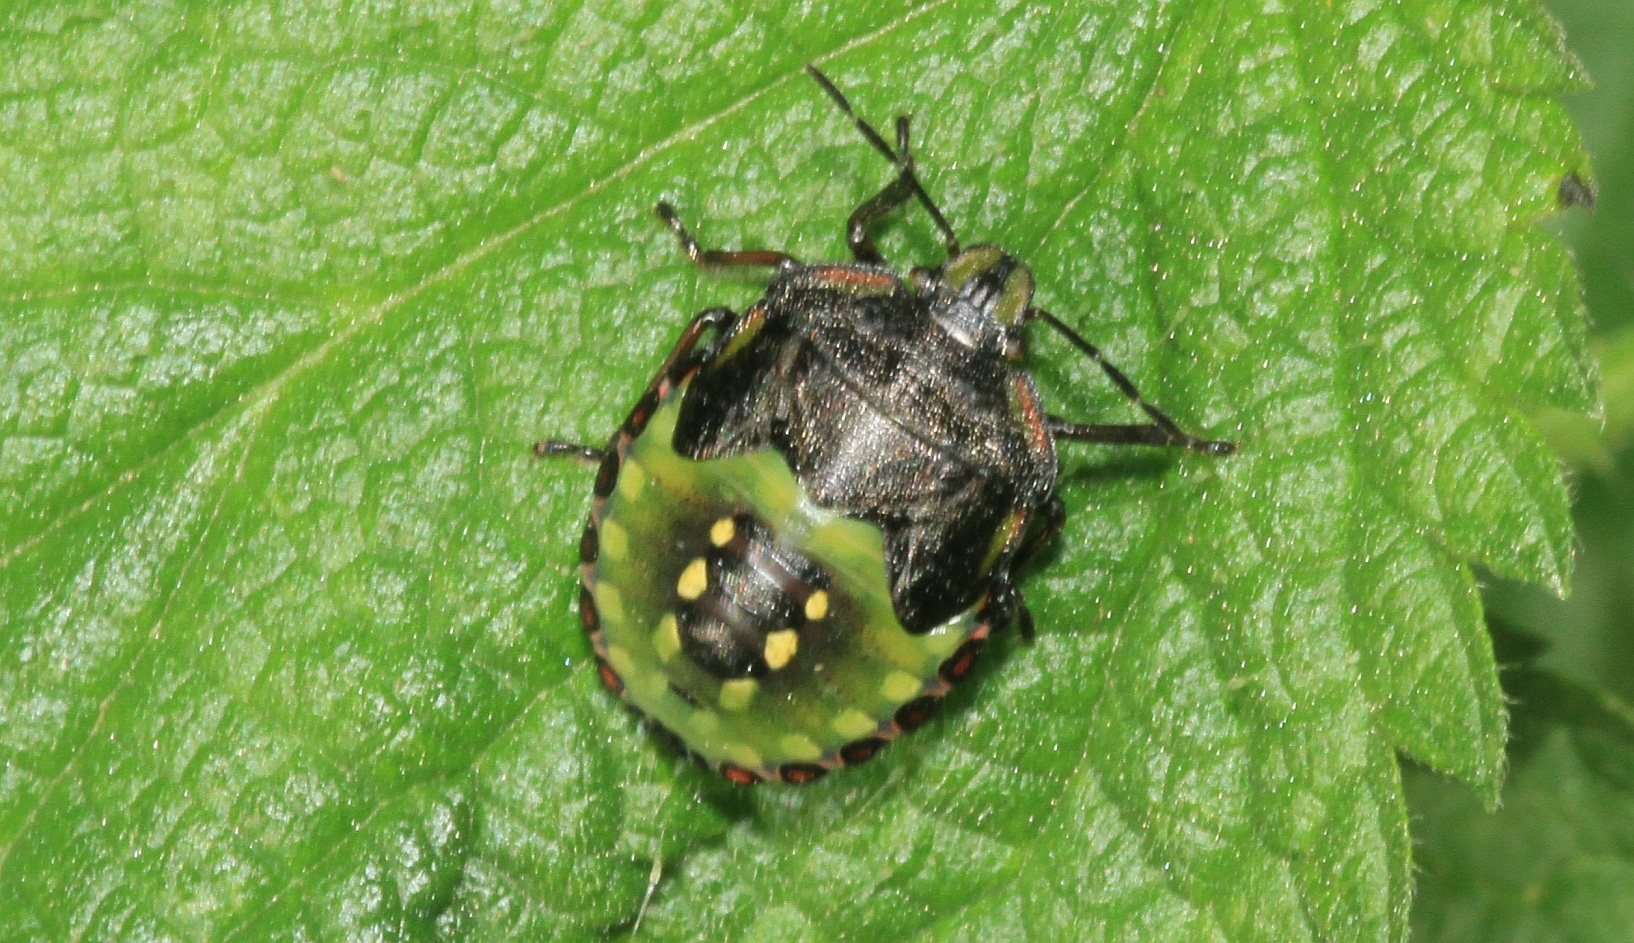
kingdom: Animalia
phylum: Arthropoda
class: Insecta
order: Hemiptera
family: Pentatomidae
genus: Nezara
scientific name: Nezara viridula
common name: Southern green stink bug
